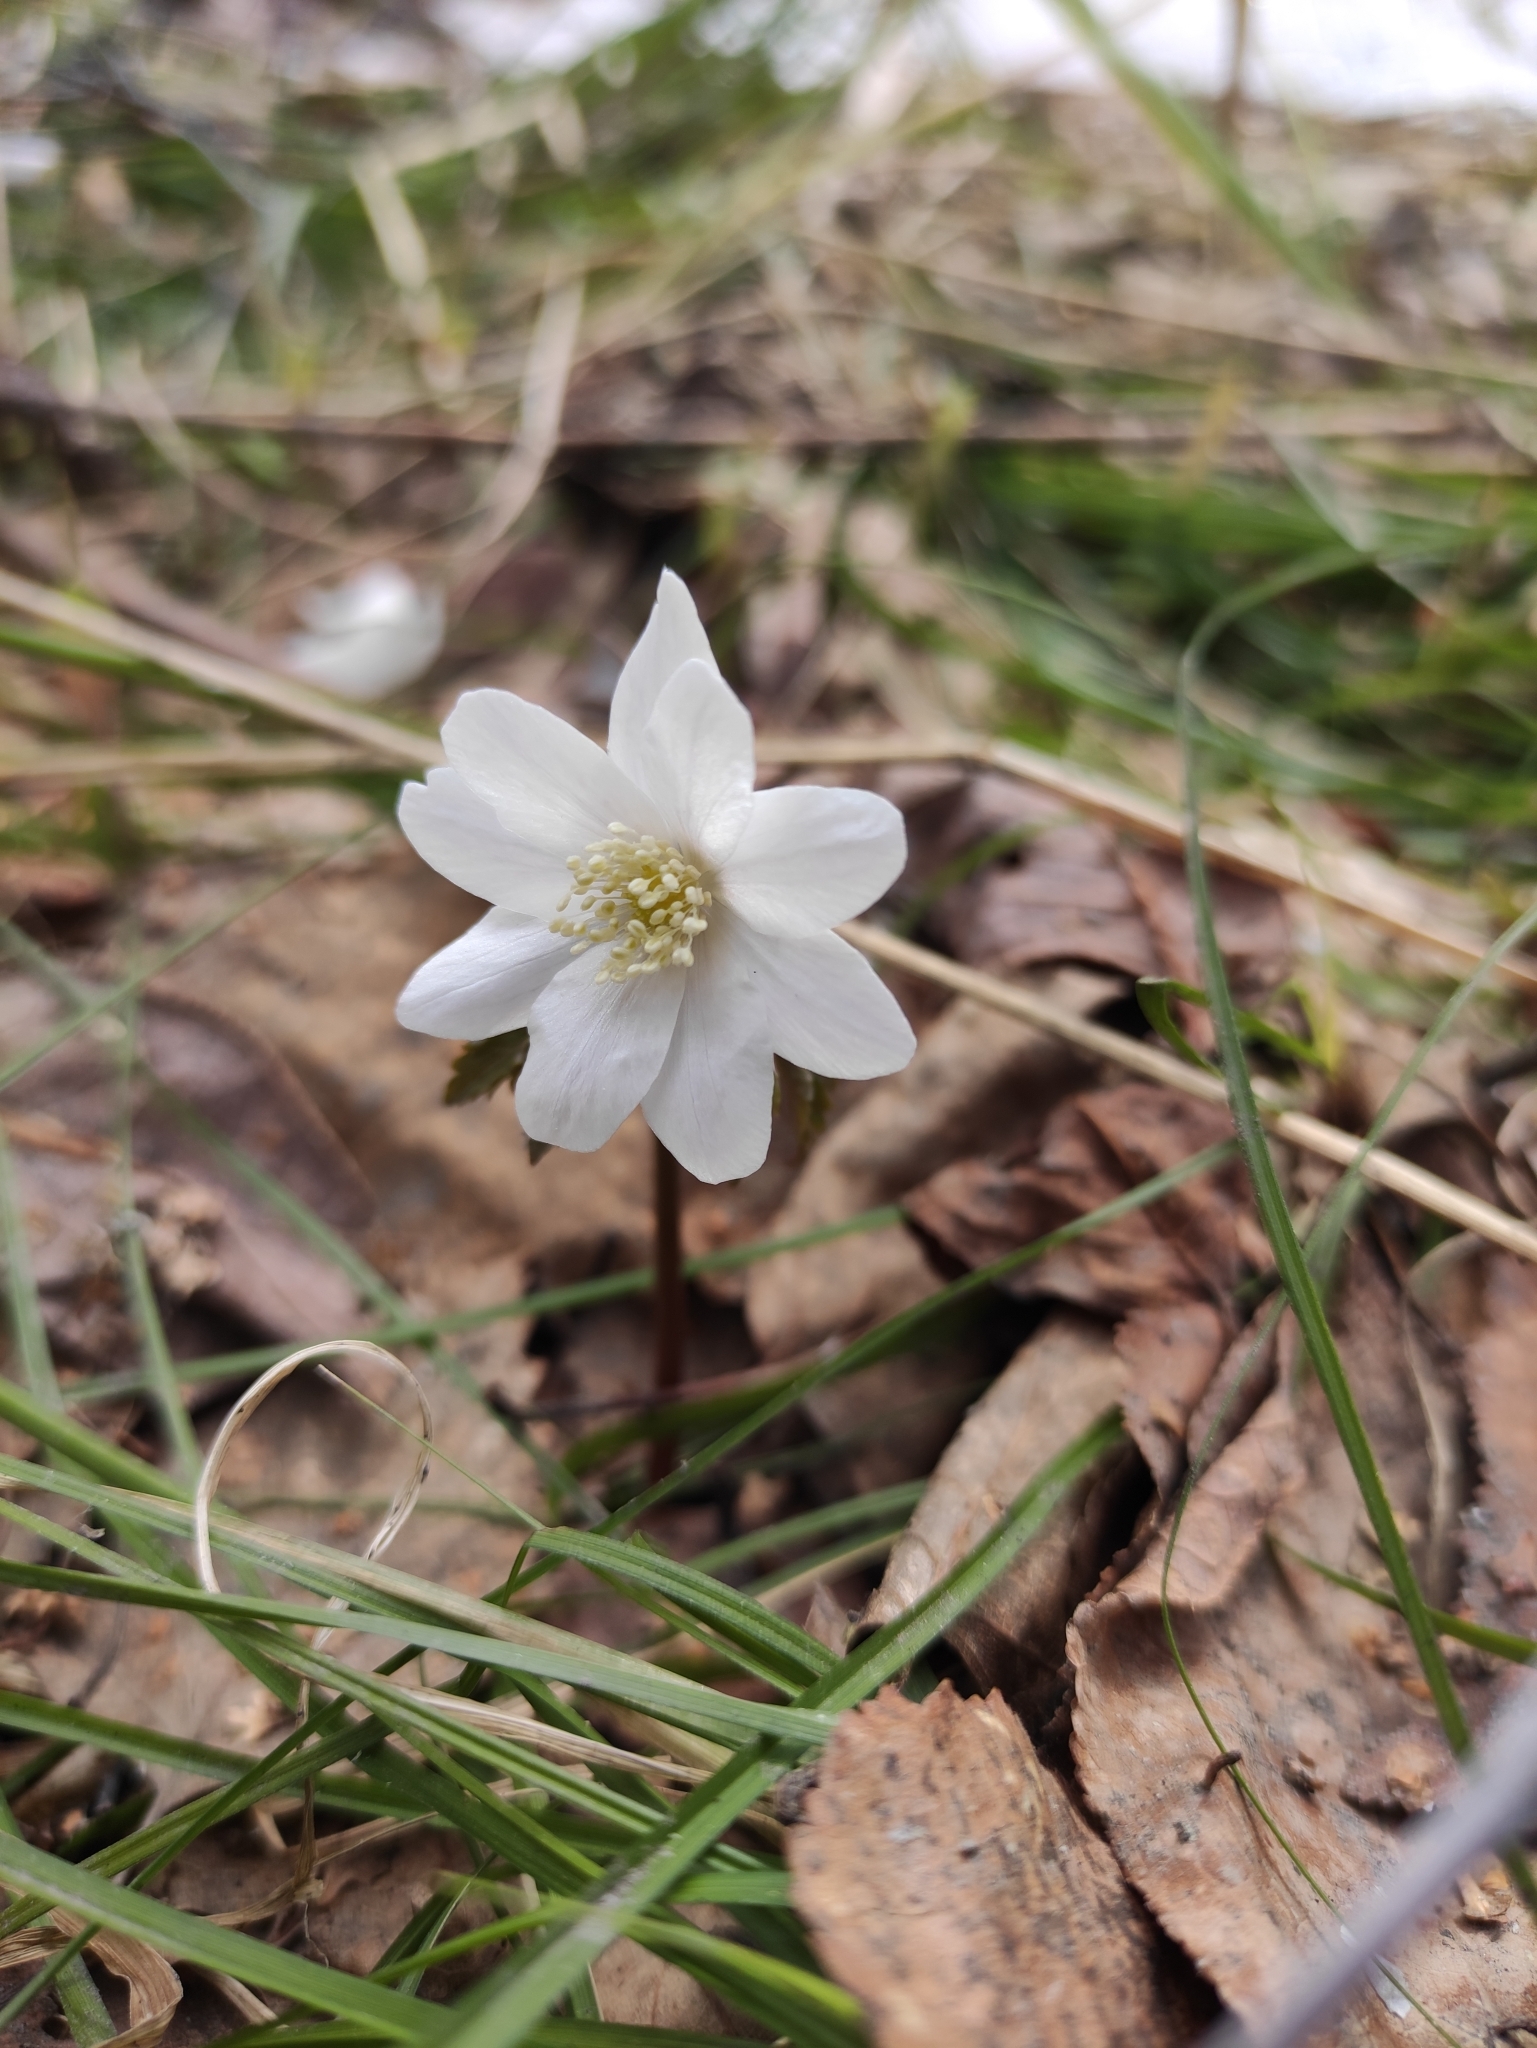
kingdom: Plantae
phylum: Tracheophyta
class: Magnoliopsida
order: Ranunculales
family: Ranunculaceae
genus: Anemone
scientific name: Anemone altaica
